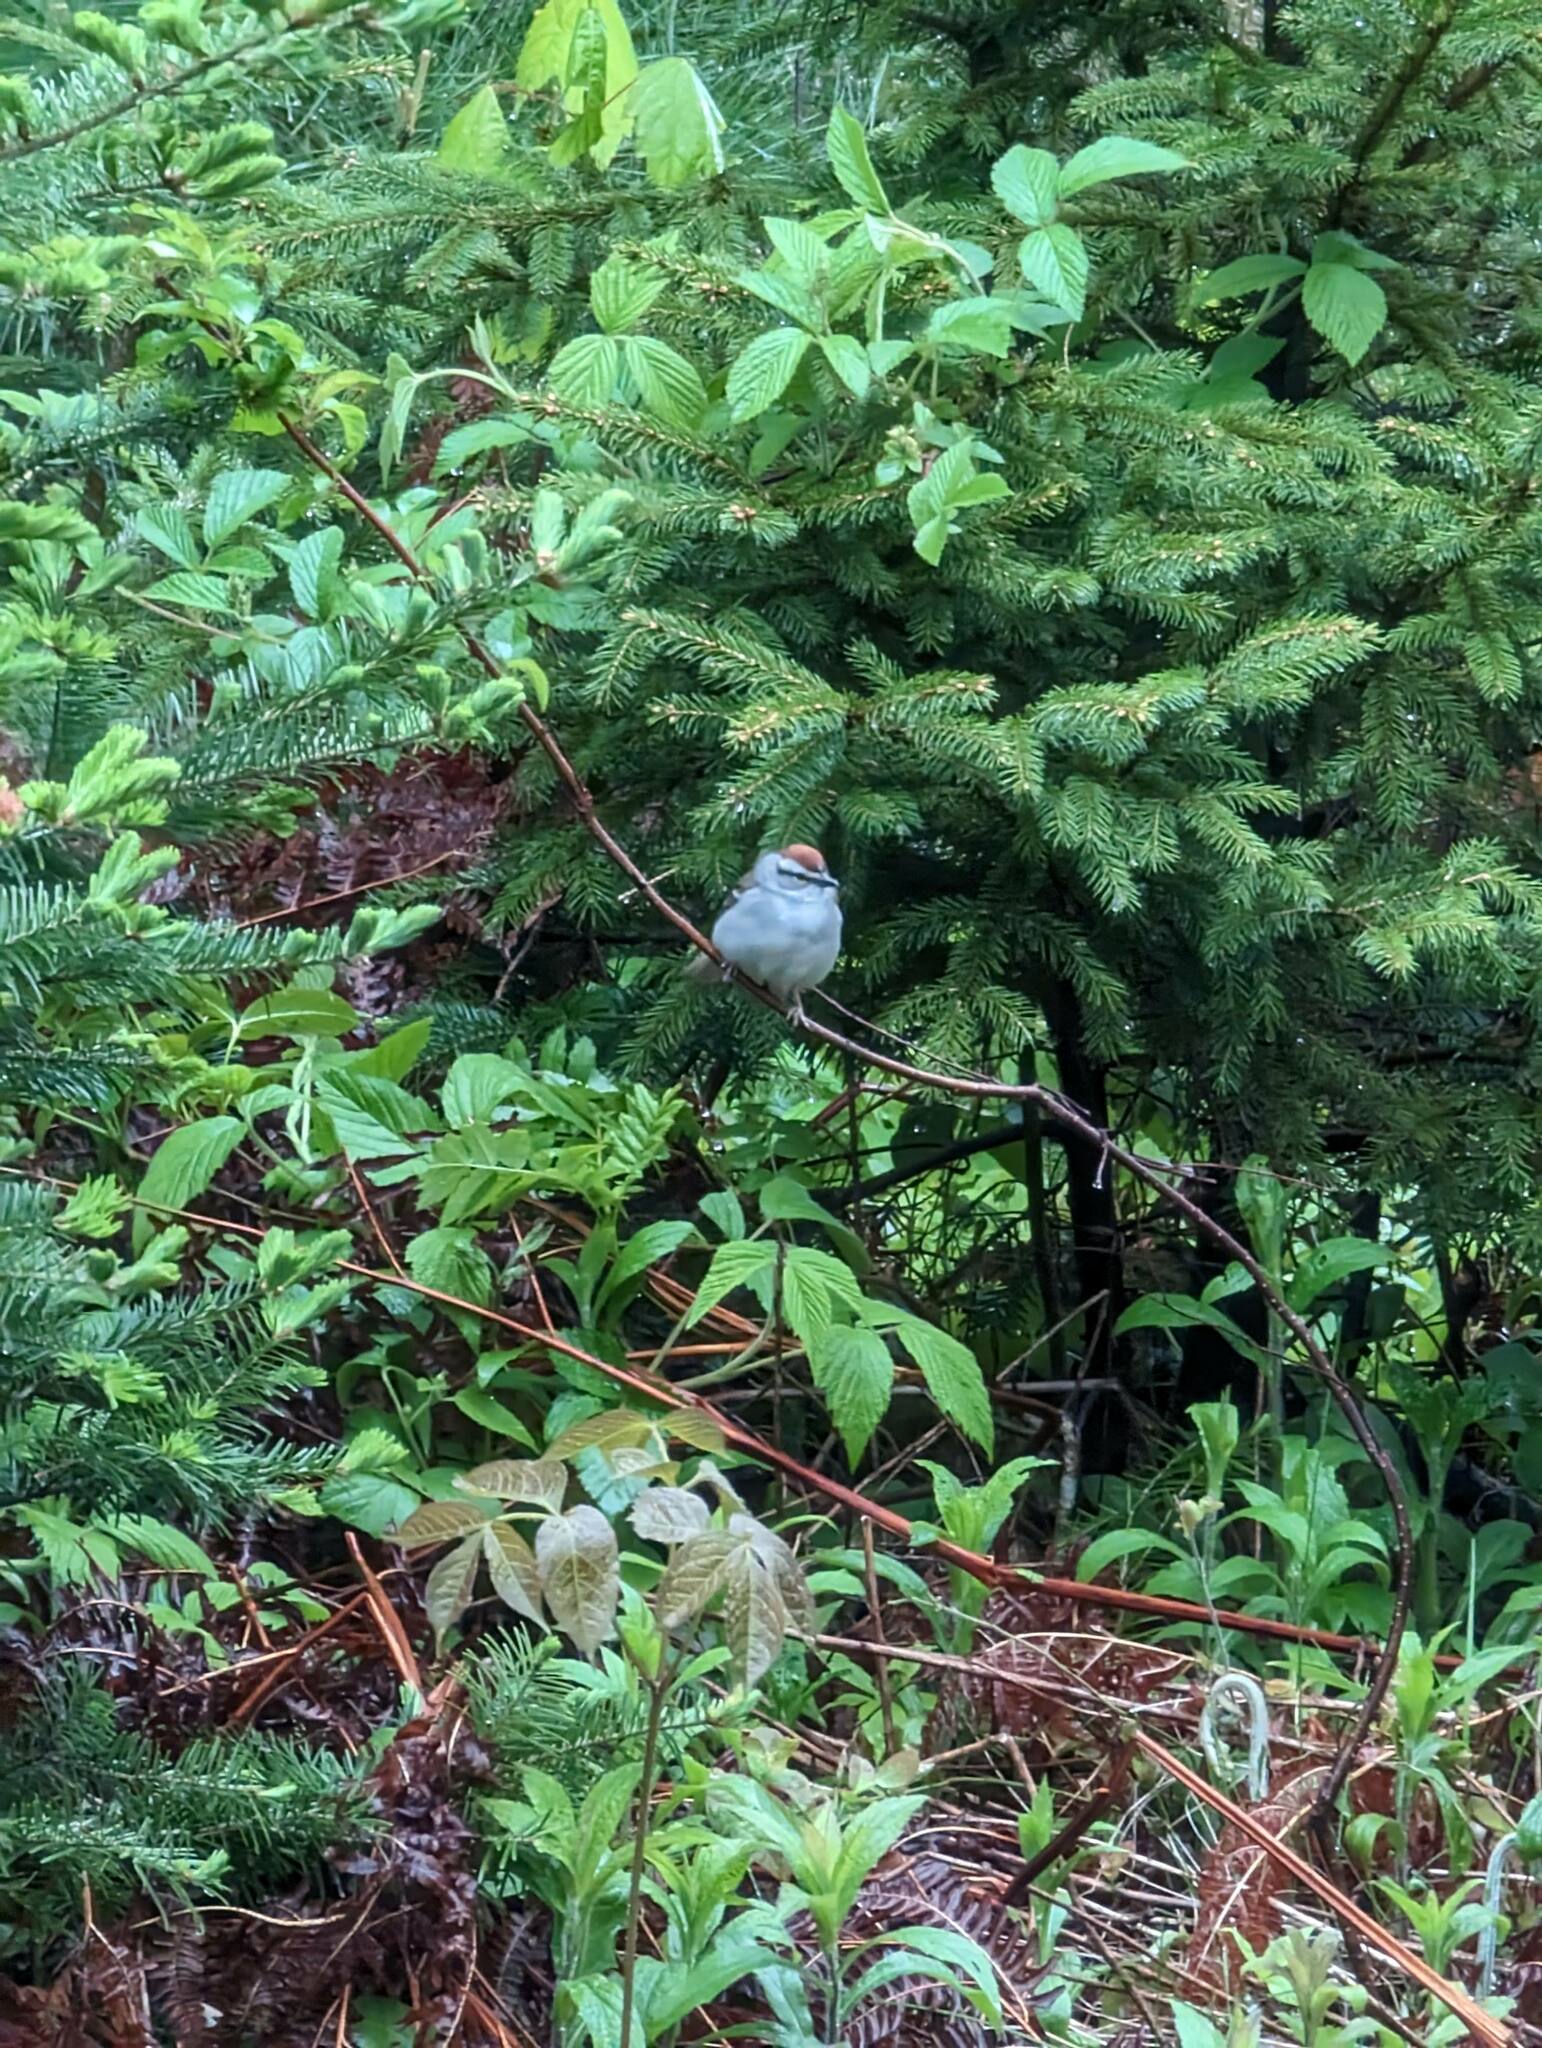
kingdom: Animalia
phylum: Chordata
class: Aves
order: Passeriformes
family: Passerellidae
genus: Spizella
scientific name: Spizella passerina
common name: Chipping sparrow
